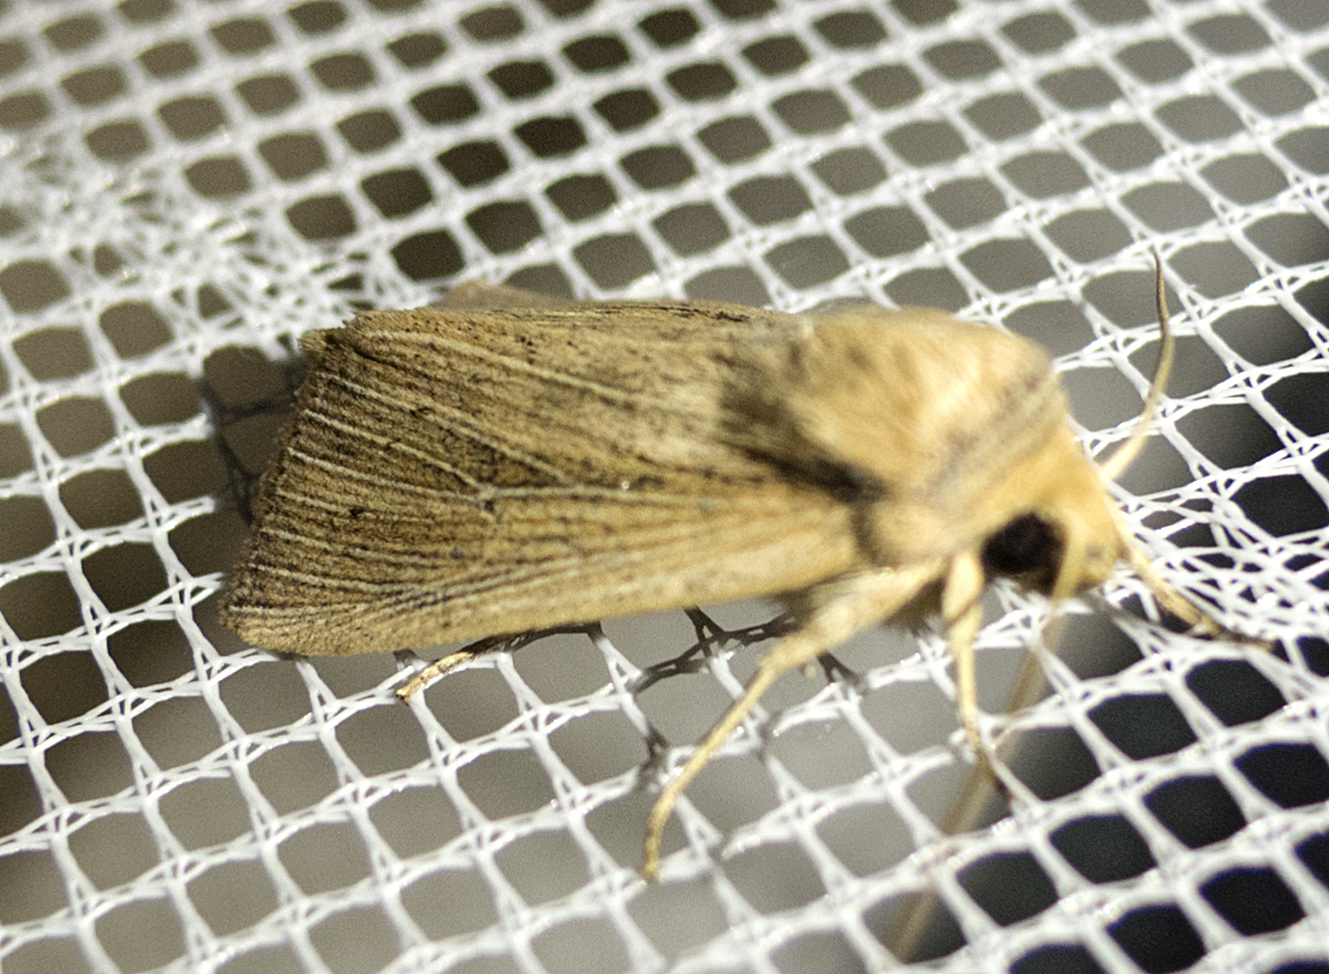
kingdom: Animalia
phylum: Arthropoda
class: Insecta
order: Lepidoptera
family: Noctuidae
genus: Mythimna
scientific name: Mythimna straminea
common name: Southern wainscot
